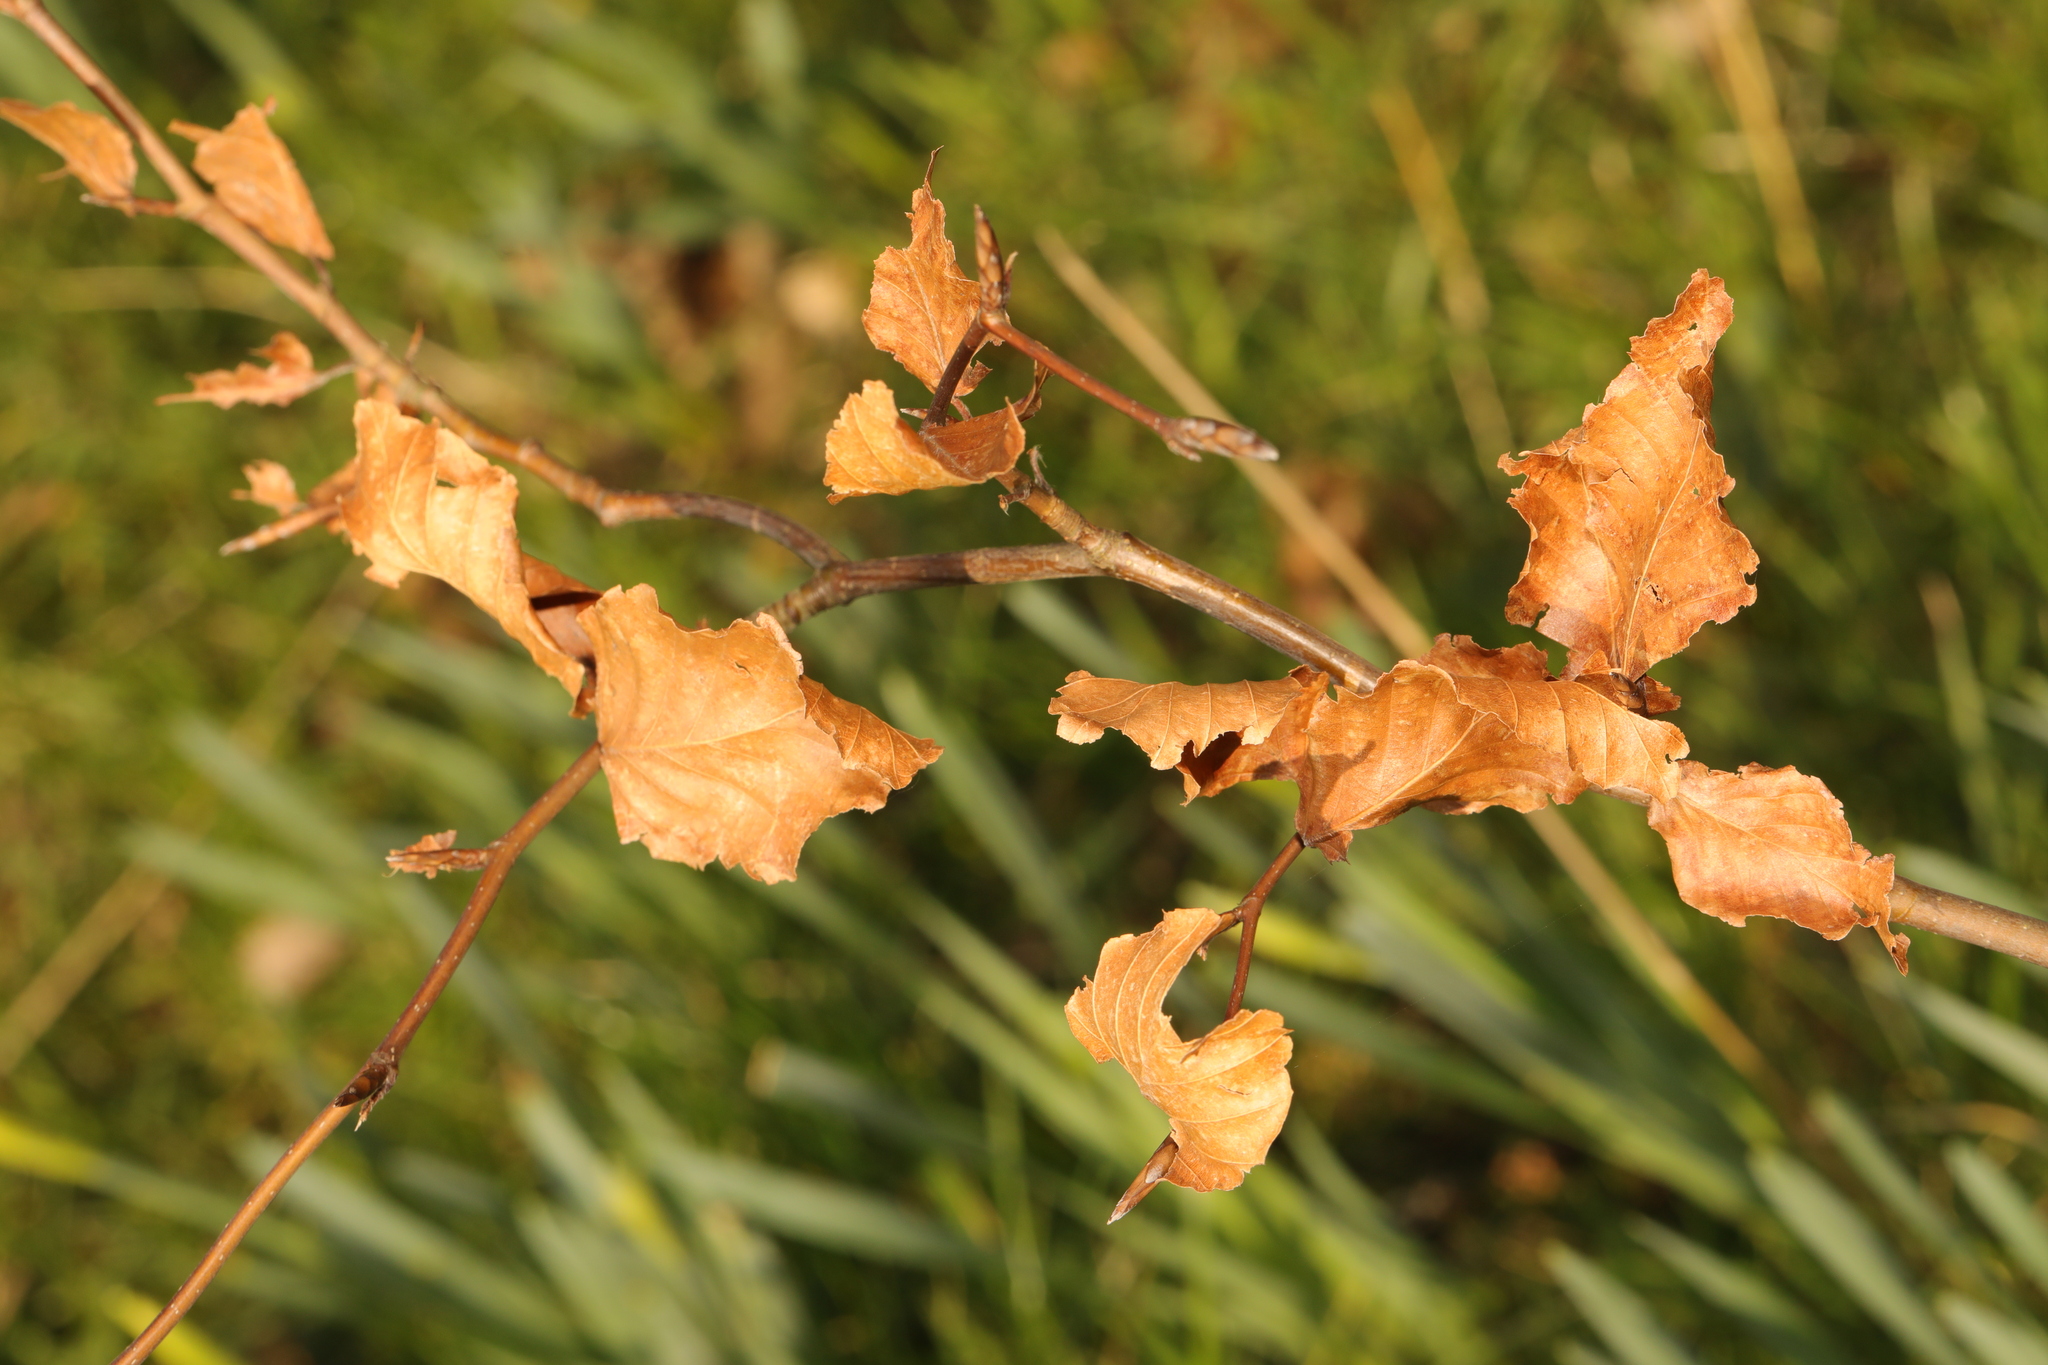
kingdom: Plantae
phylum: Tracheophyta
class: Magnoliopsida
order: Fagales
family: Fagaceae
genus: Fagus
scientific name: Fagus sylvatica
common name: Beech
